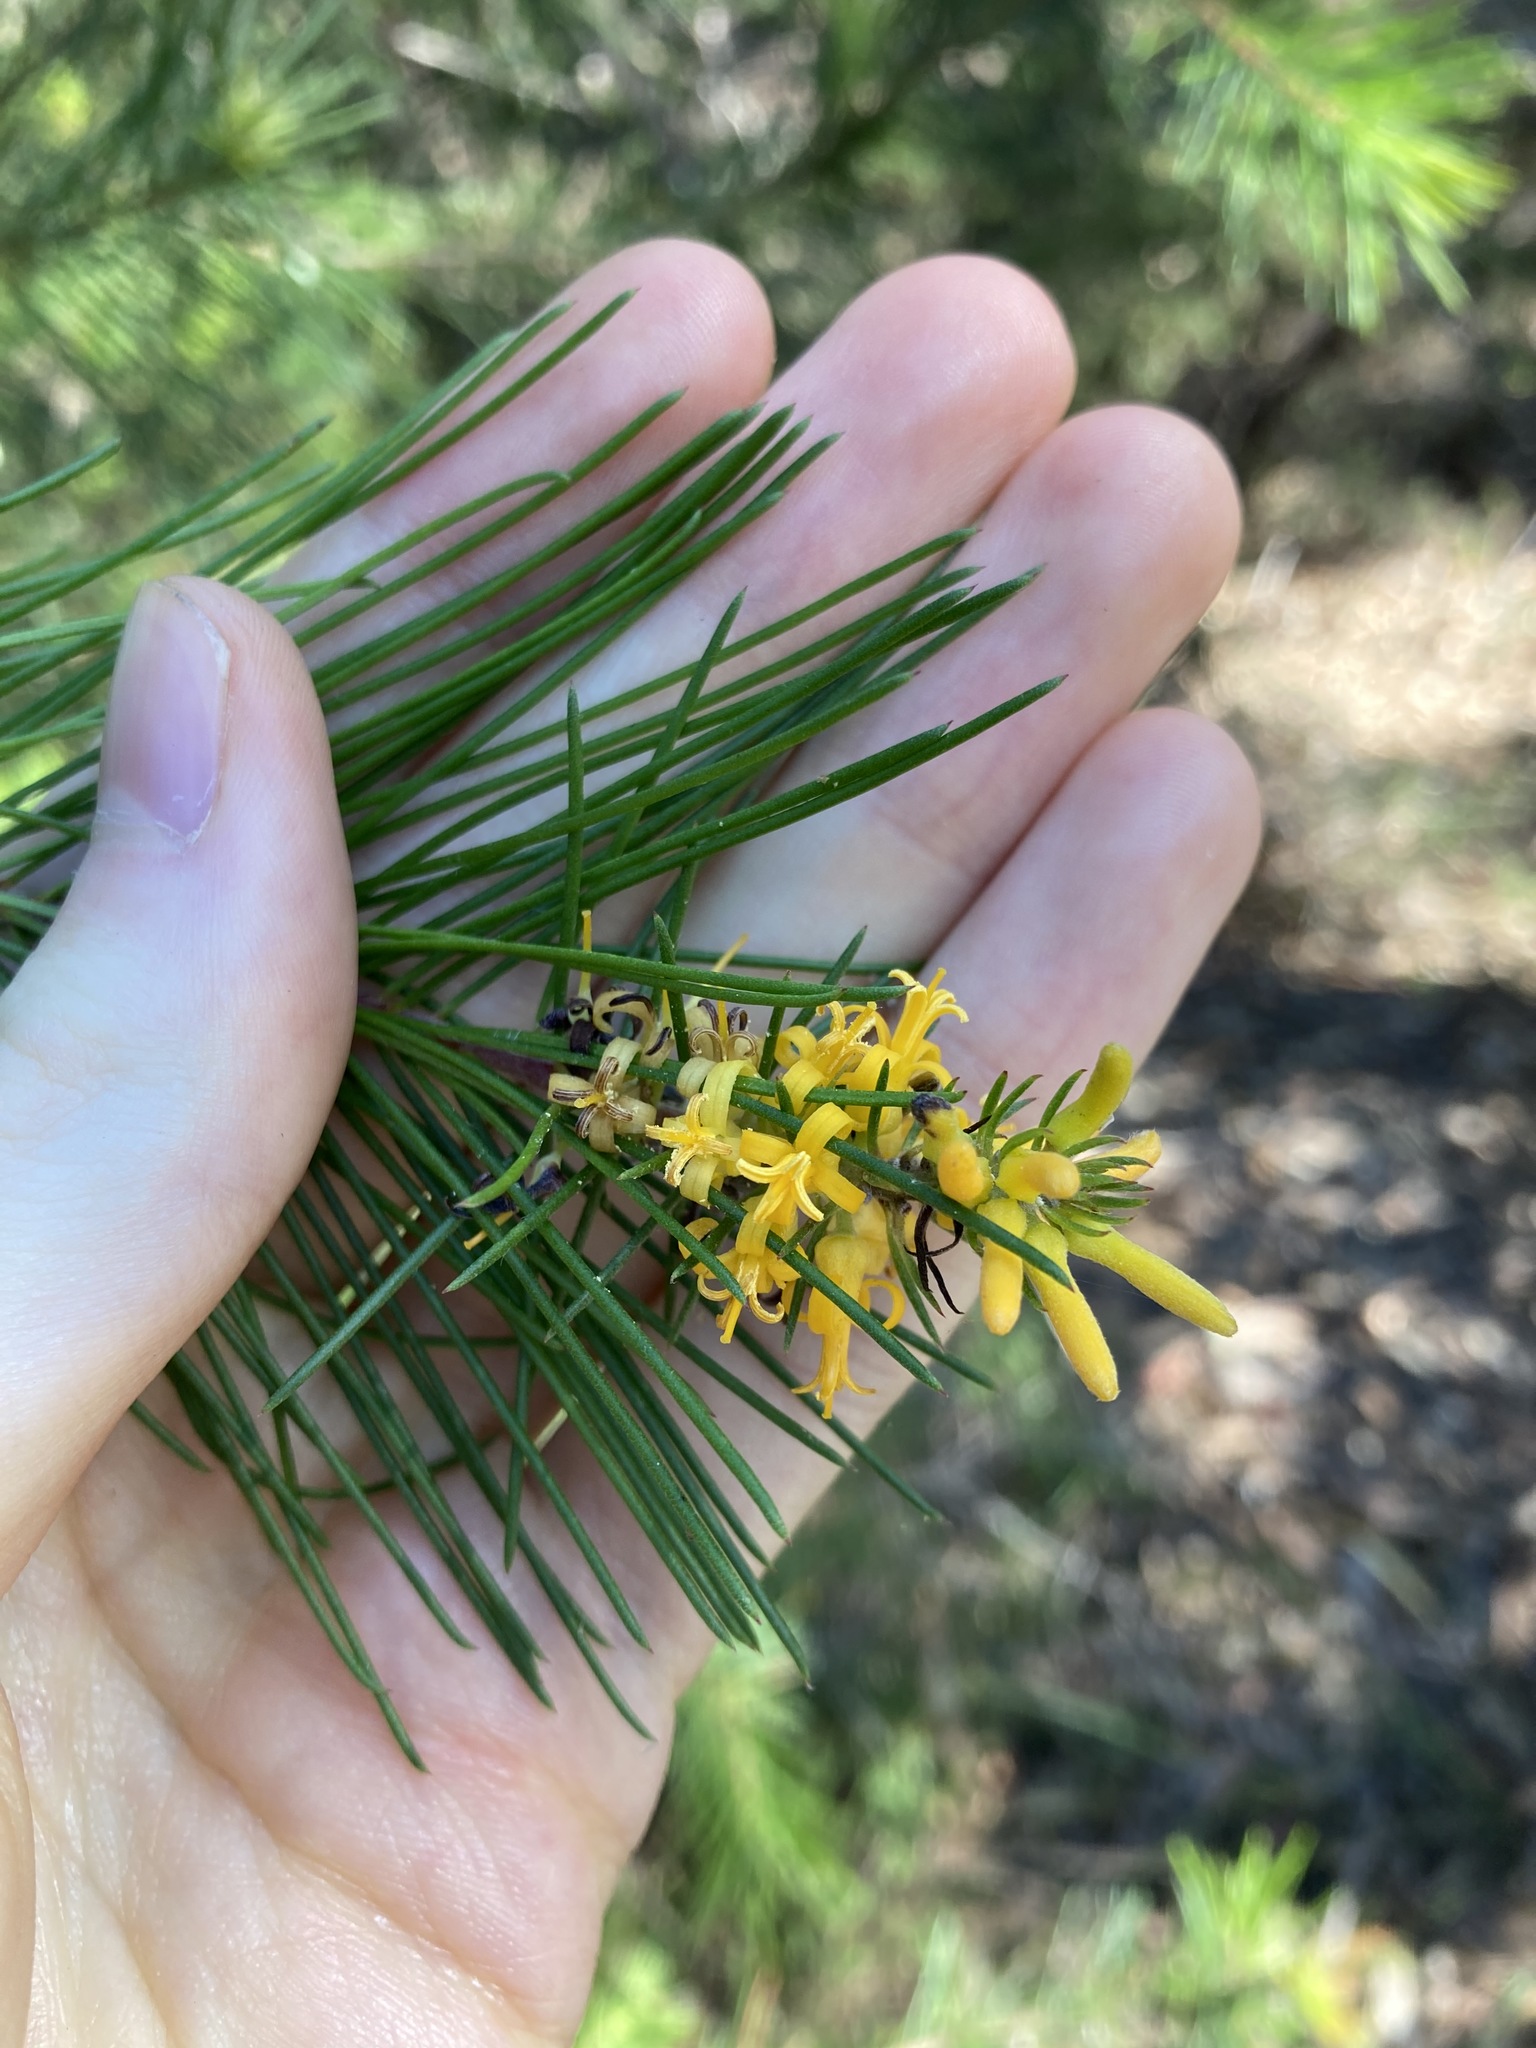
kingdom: Plantae
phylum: Tracheophyta
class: Magnoliopsida
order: Proteales
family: Proteaceae
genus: Persoonia
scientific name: Persoonia pinifolia
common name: Pine-leaf geebung
